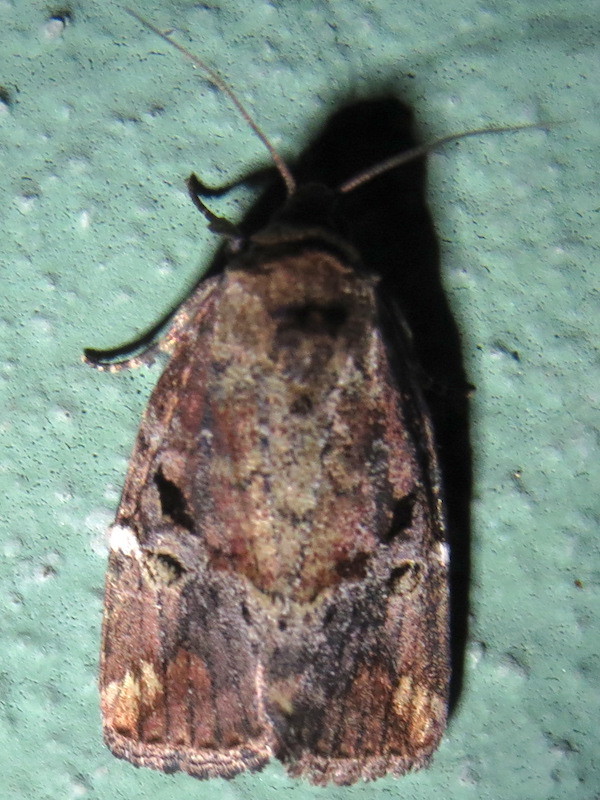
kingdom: Animalia
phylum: Arthropoda
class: Insecta
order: Lepidoptera
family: Noctuidae
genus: Elaphria
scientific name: Elaphria versicolor
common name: Fir harlequin
